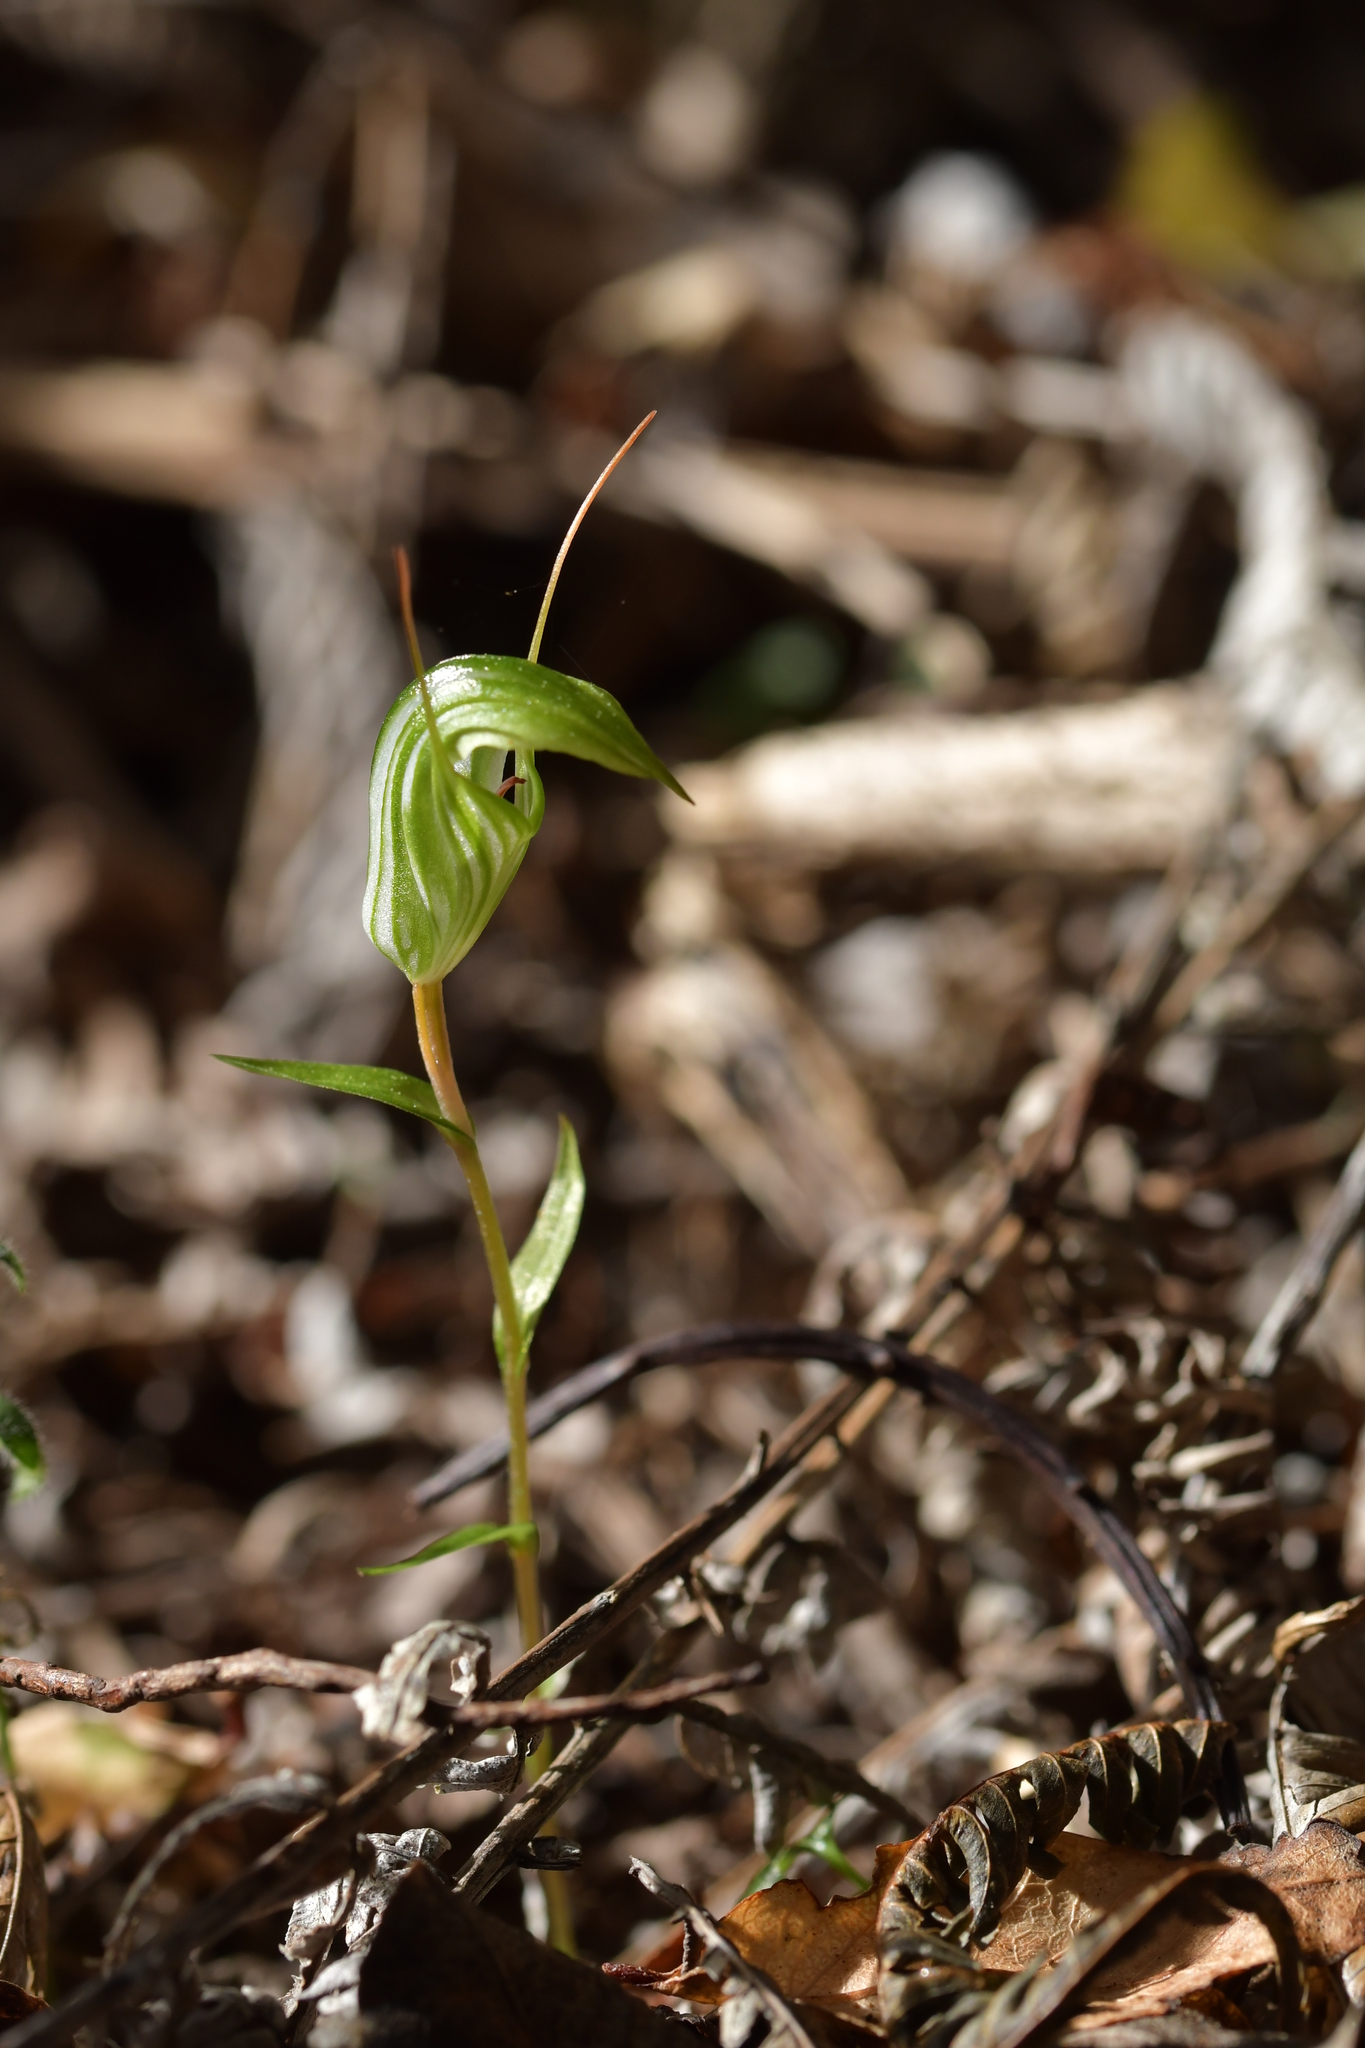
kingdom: Plantae
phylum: Tracheophyta
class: Liliopsida
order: Asparagales
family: Orchidaceae
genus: Pterostylis
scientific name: Pterostylis alobula
